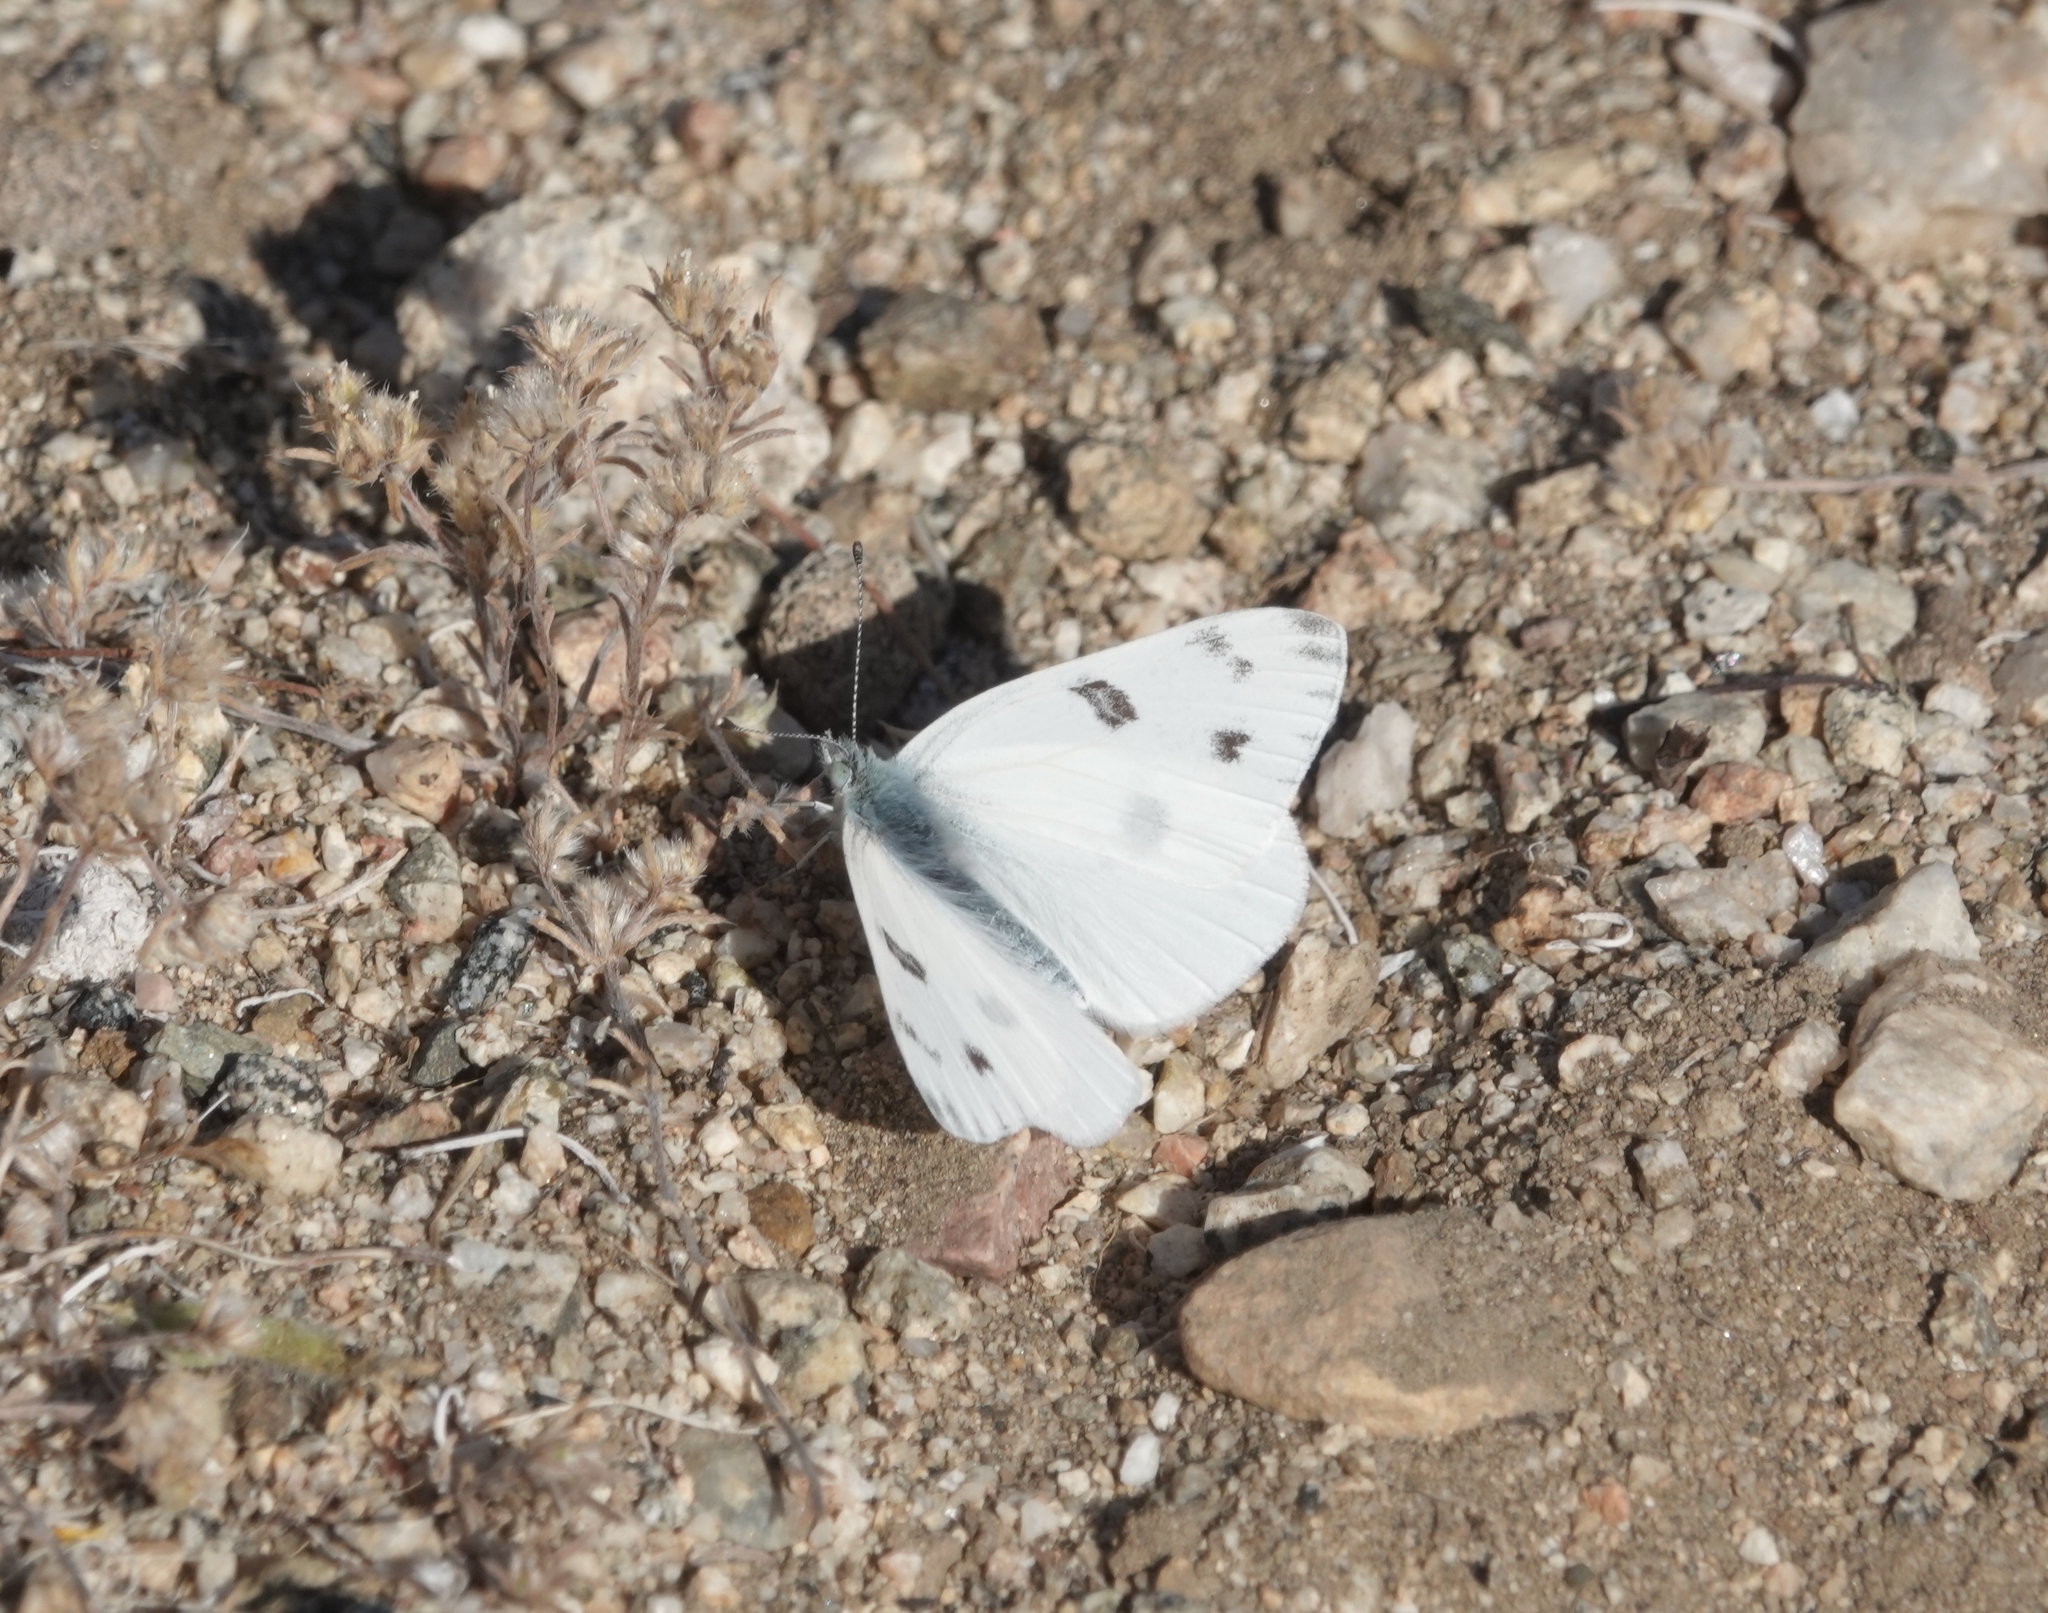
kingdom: Animalia
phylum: Arthropoda
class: Insecta
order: Lepidoptera
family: Pieridae
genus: Pontia
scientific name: Pontia protodice
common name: Checkered white
